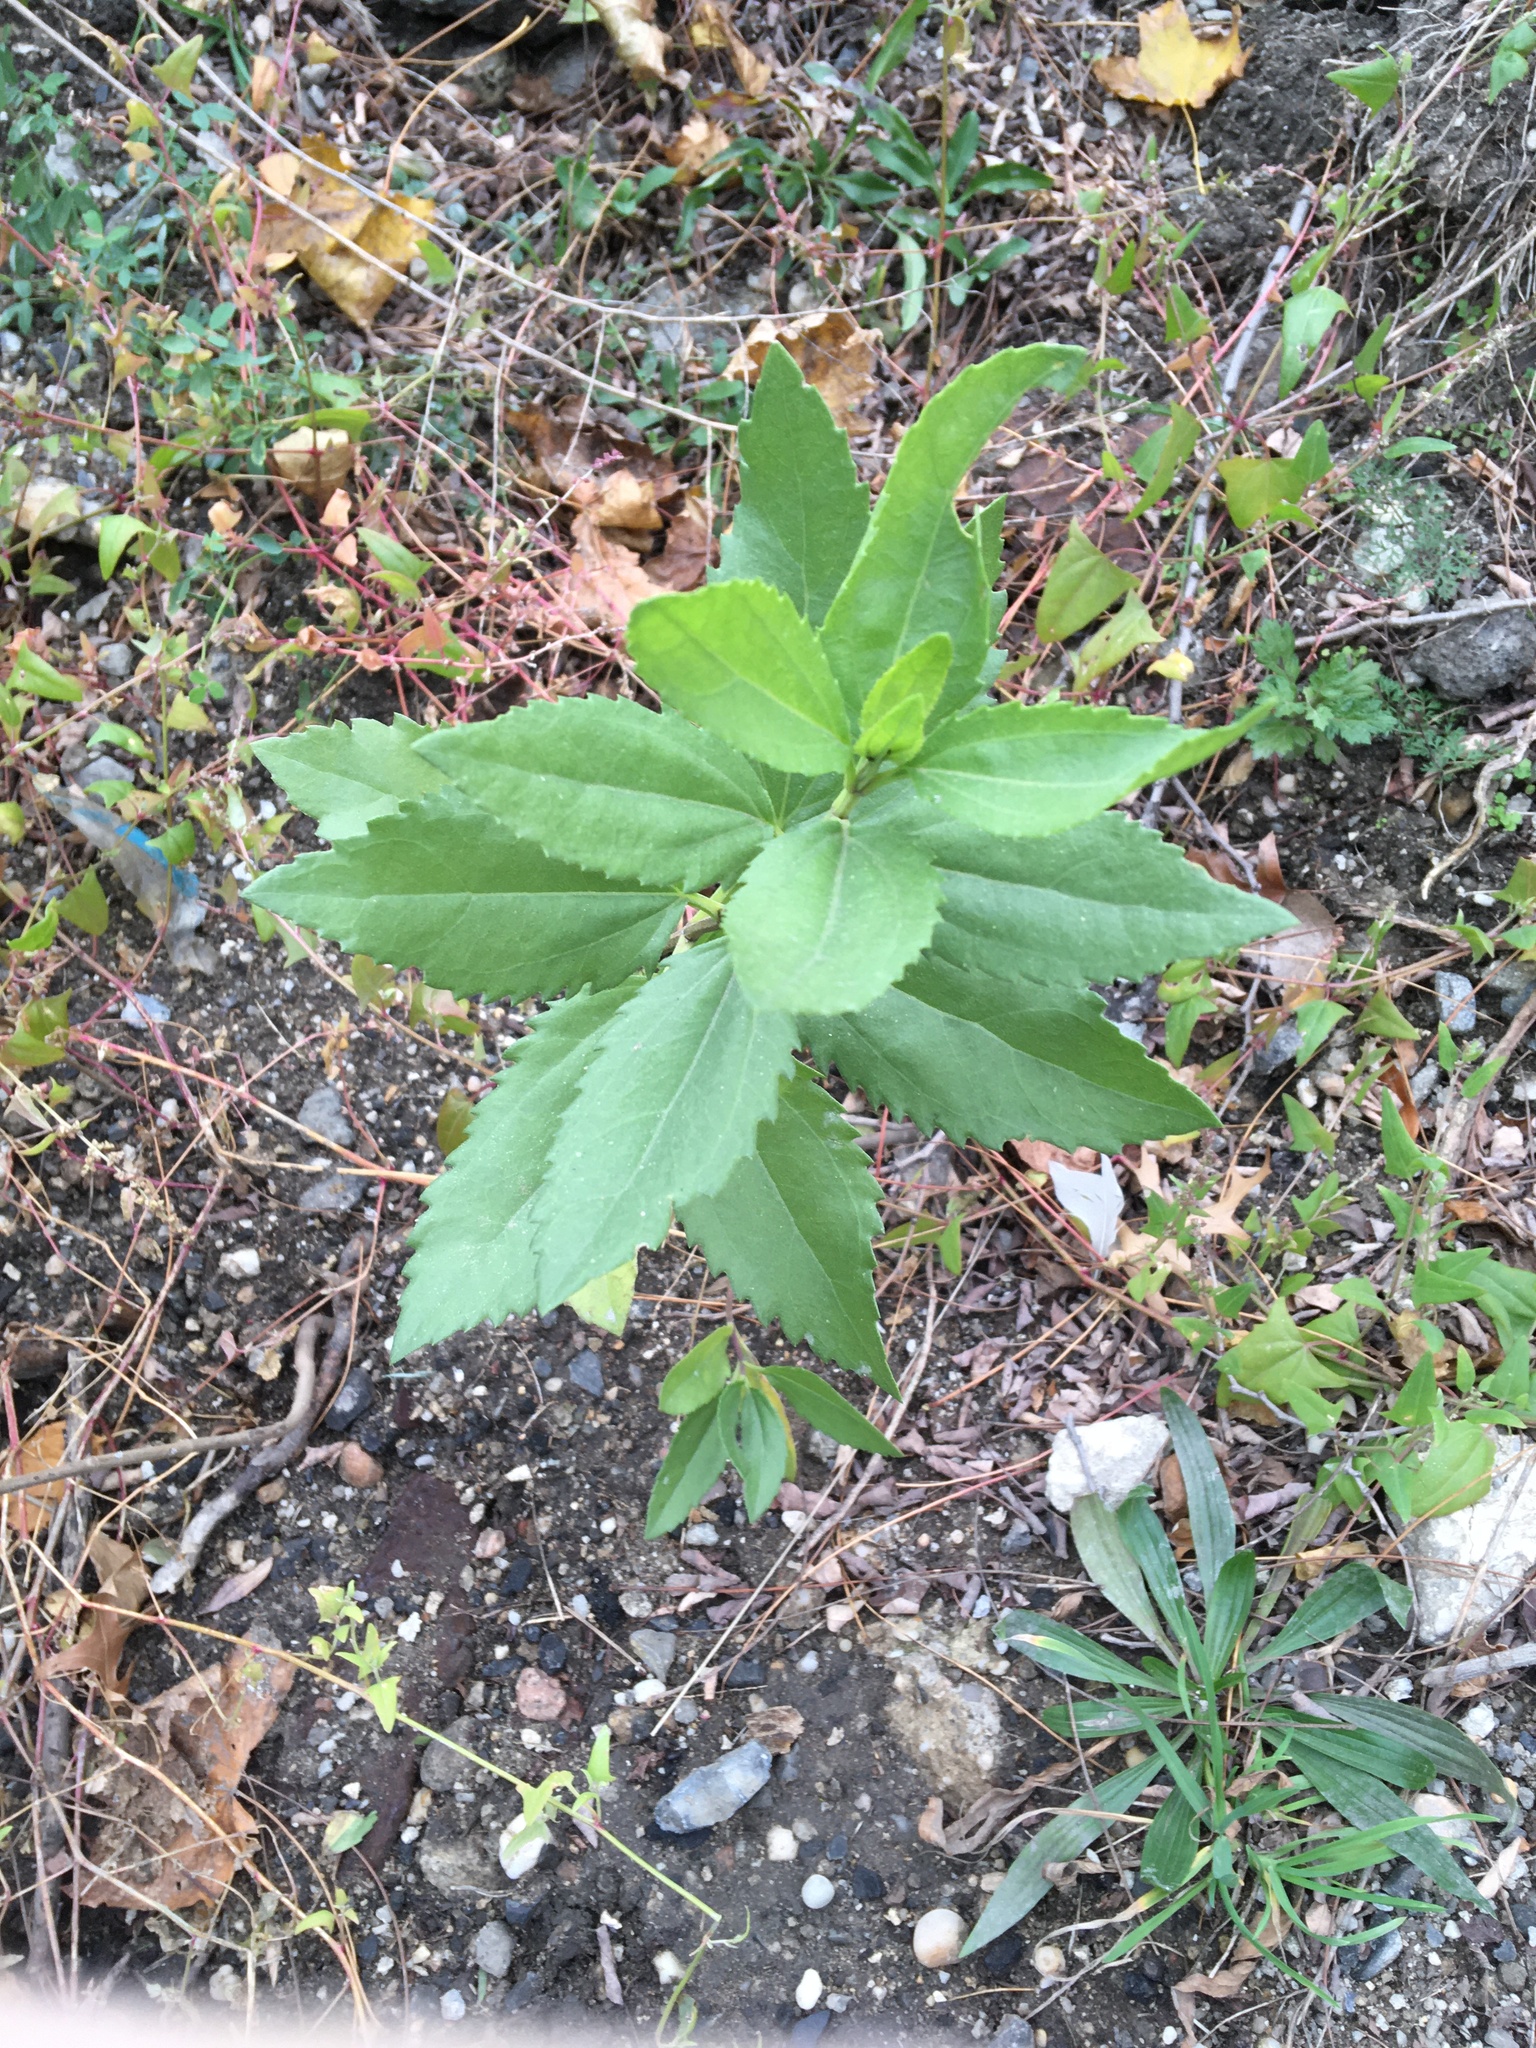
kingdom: Plantae
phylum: Tracheophyta
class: Magnoliopsida
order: Asterales
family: Asteraceae
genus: Iva
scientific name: Iva frutescens
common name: Big-leaved marsh-elder
